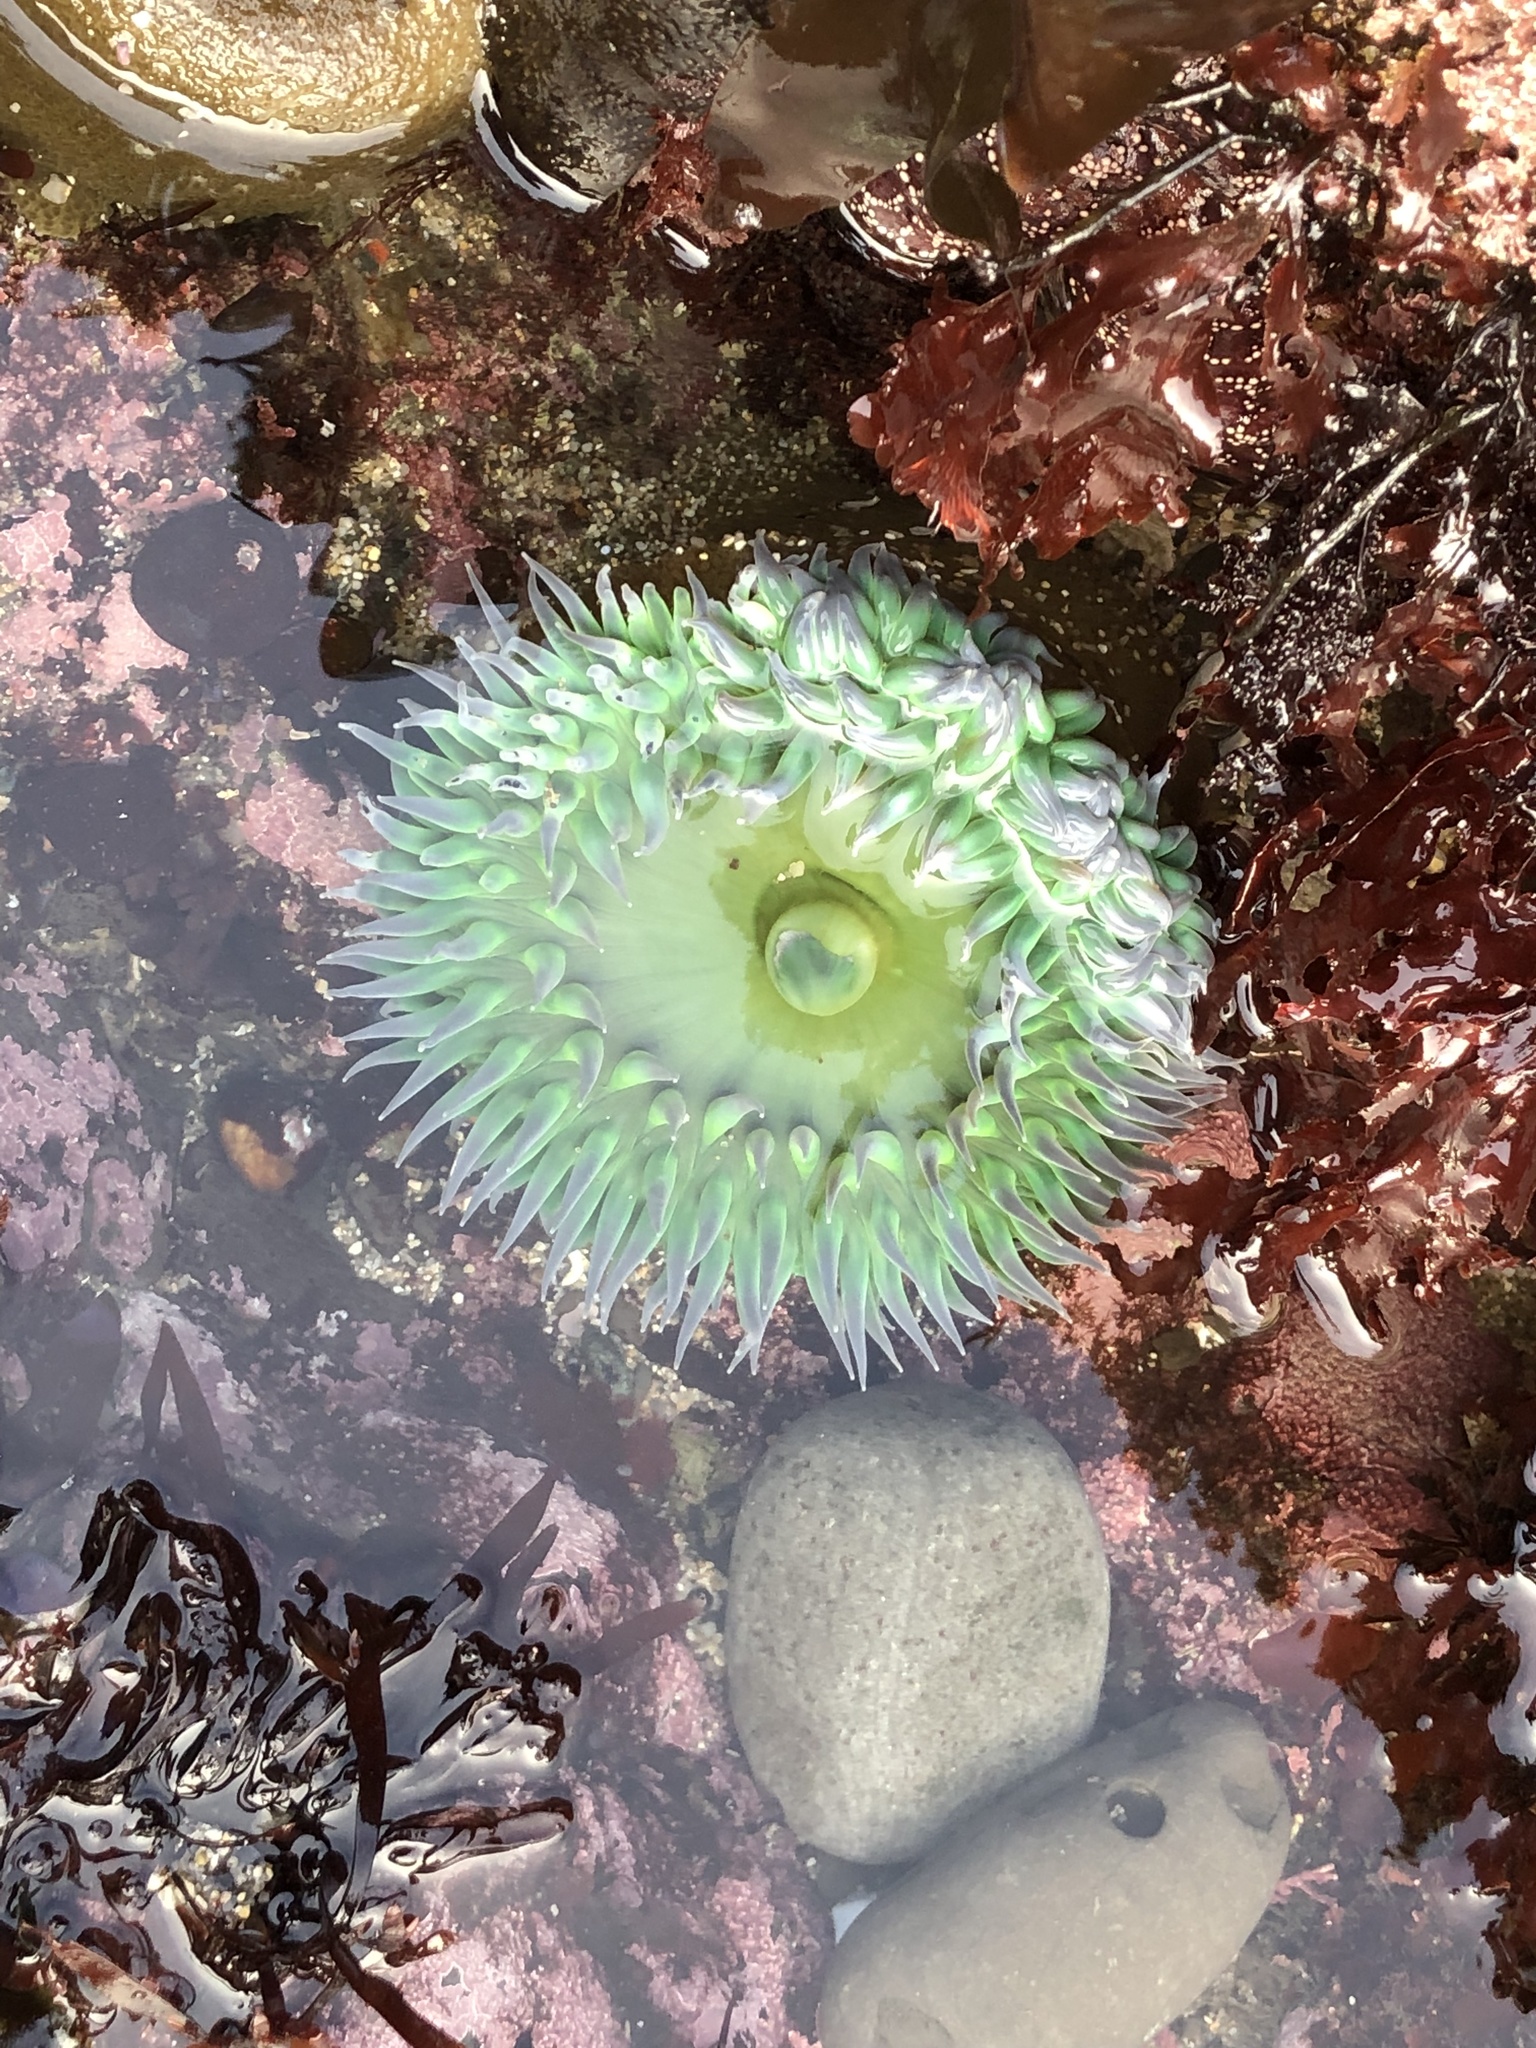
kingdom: Animalia
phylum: Cnidaria
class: Anthozoa
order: Actiniaria
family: Actiniidae
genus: Anthopleura
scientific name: Anthopleura xanthogrammica
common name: Giant green anemone
